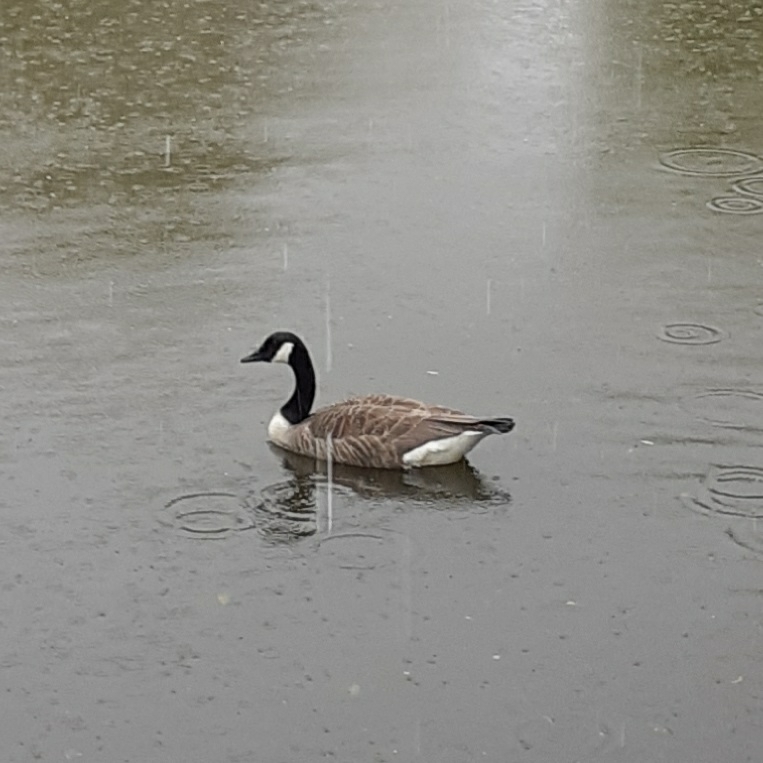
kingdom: Animalia
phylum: Chordata
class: Aves
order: Anseriformes
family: Anatidae
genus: Branta
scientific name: Branta canadensis
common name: Canada goose
